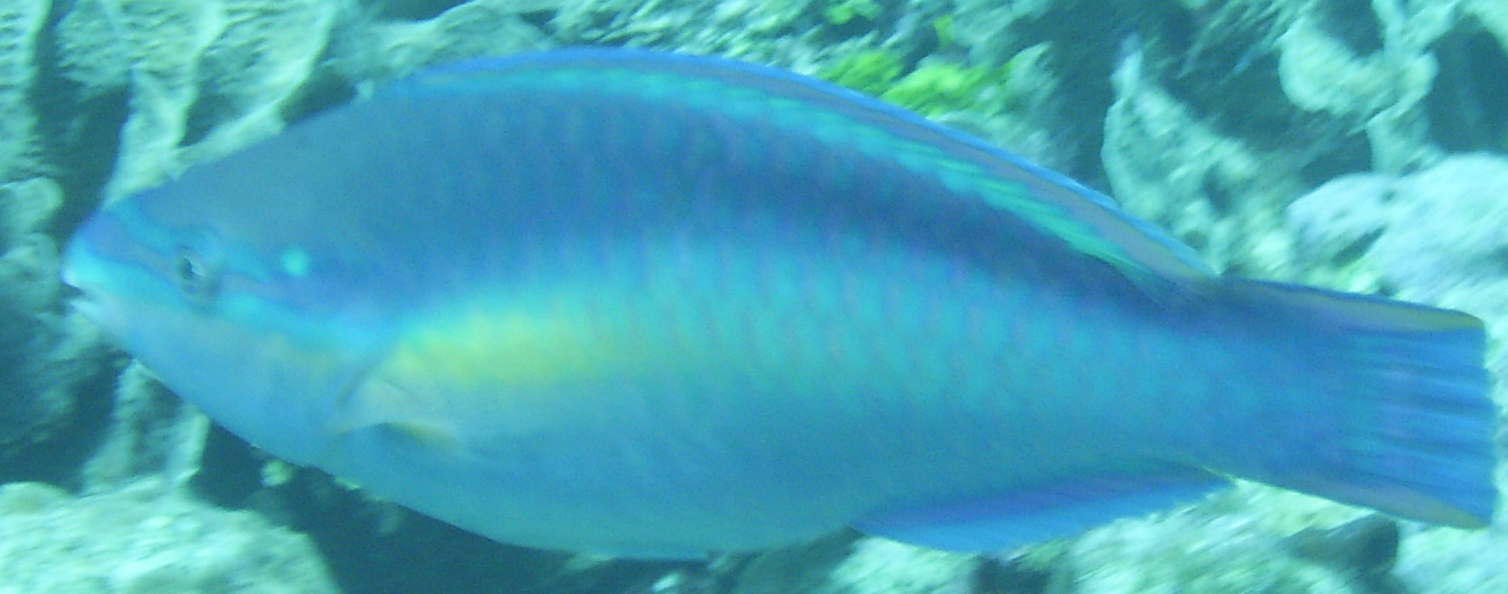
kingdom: Animalia
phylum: Chordata
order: Perciformes
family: Scaridae
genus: Scarus
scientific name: Scarus taeniopterus
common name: Princess parrotfish
